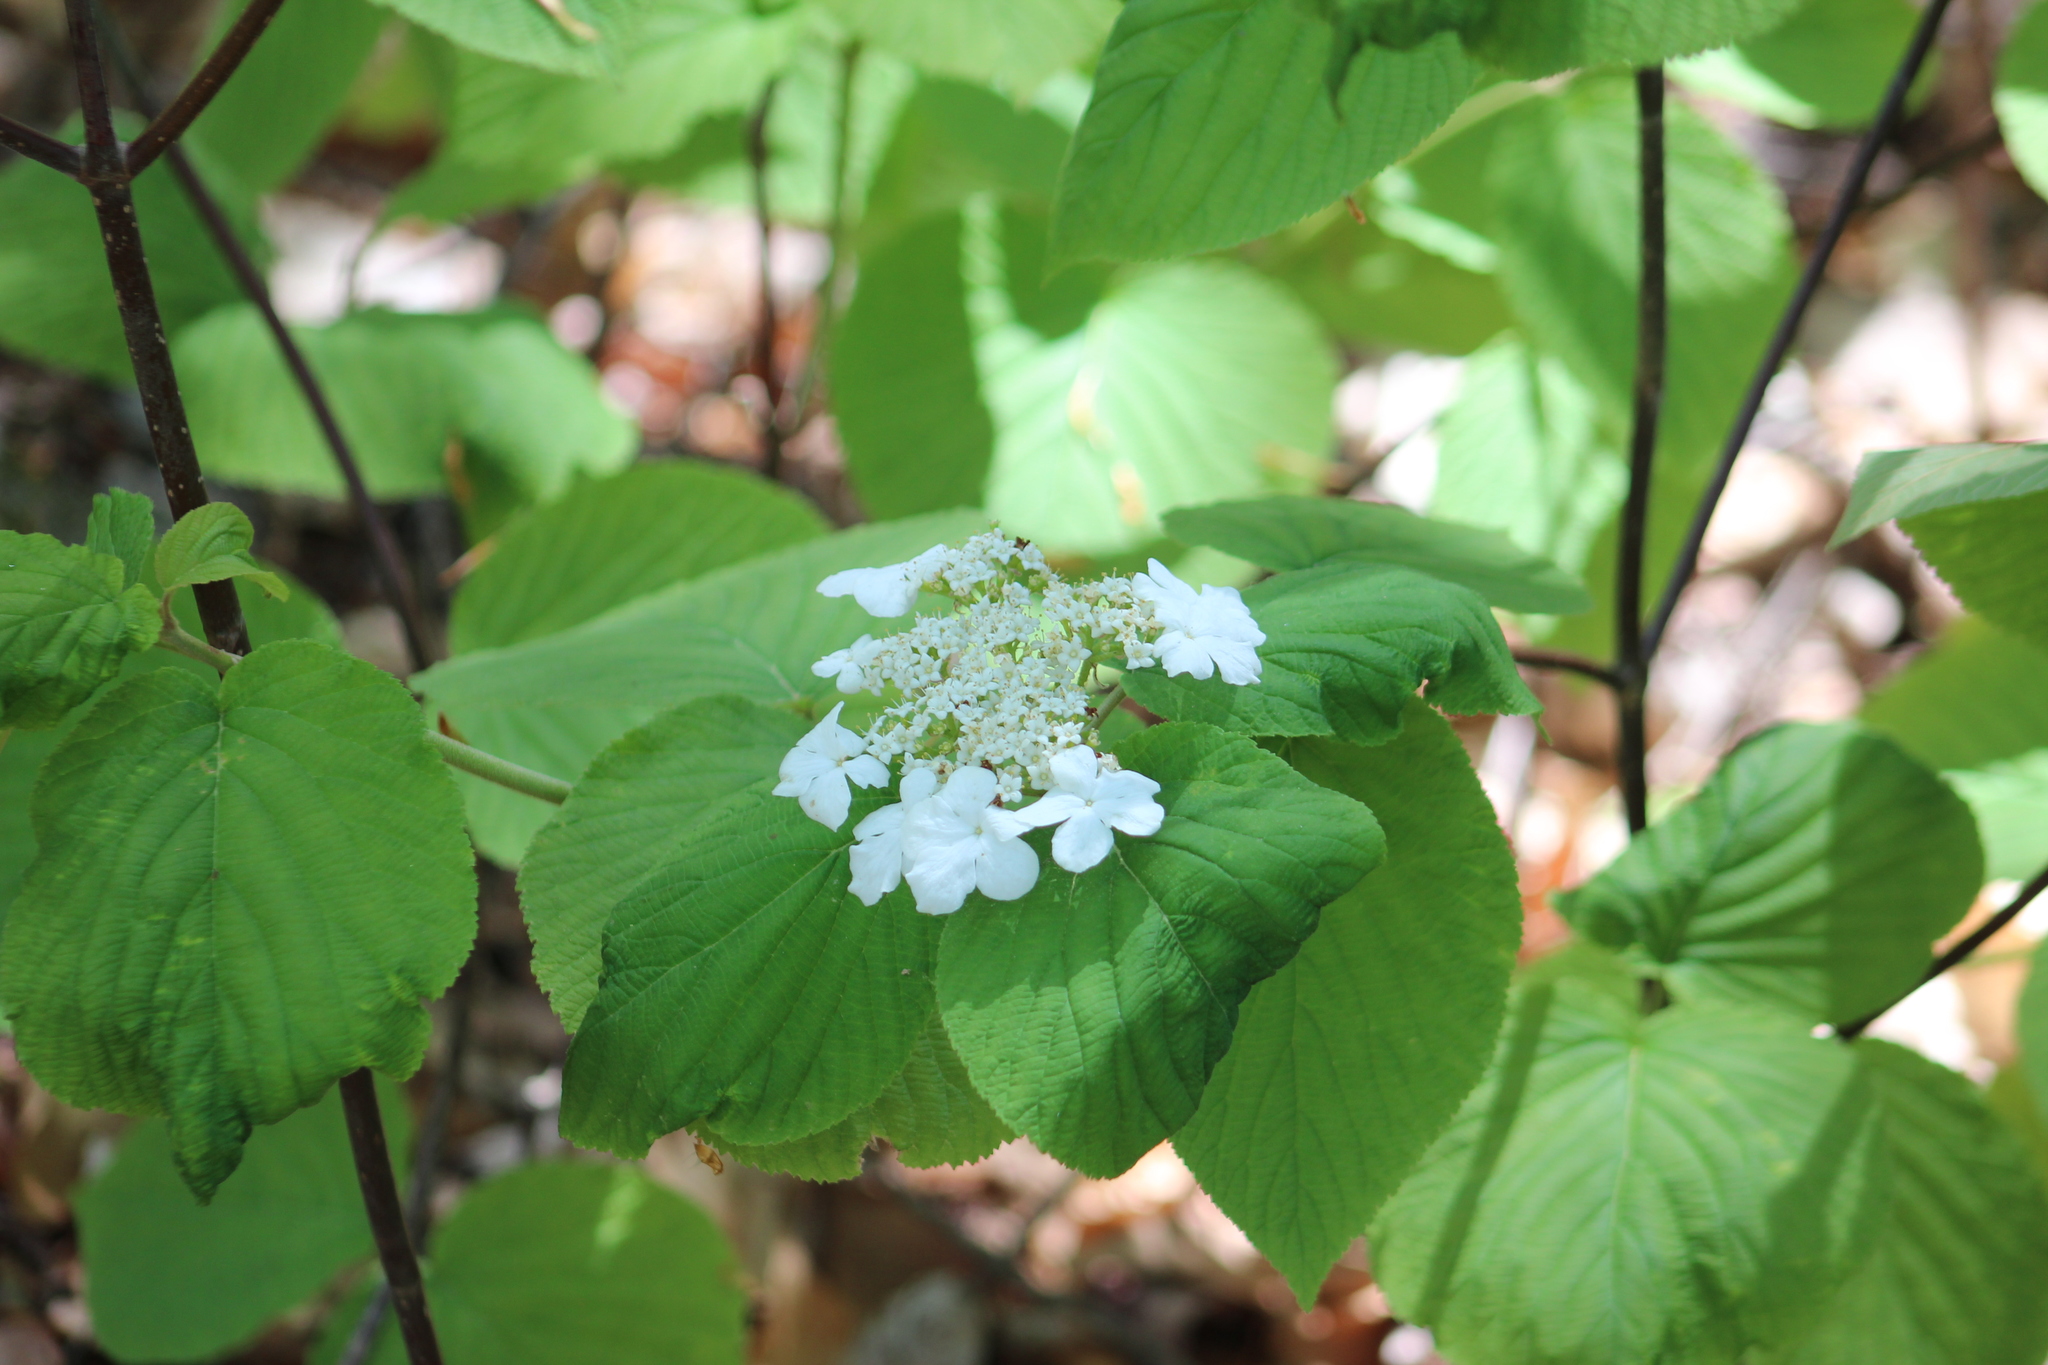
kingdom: Plantae
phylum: Tracheophyta
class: Magnoliopsida
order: Dipsacales
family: Viburnaceae
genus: Viburnum
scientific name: Viburnum lantanoides
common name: Hobblebush
